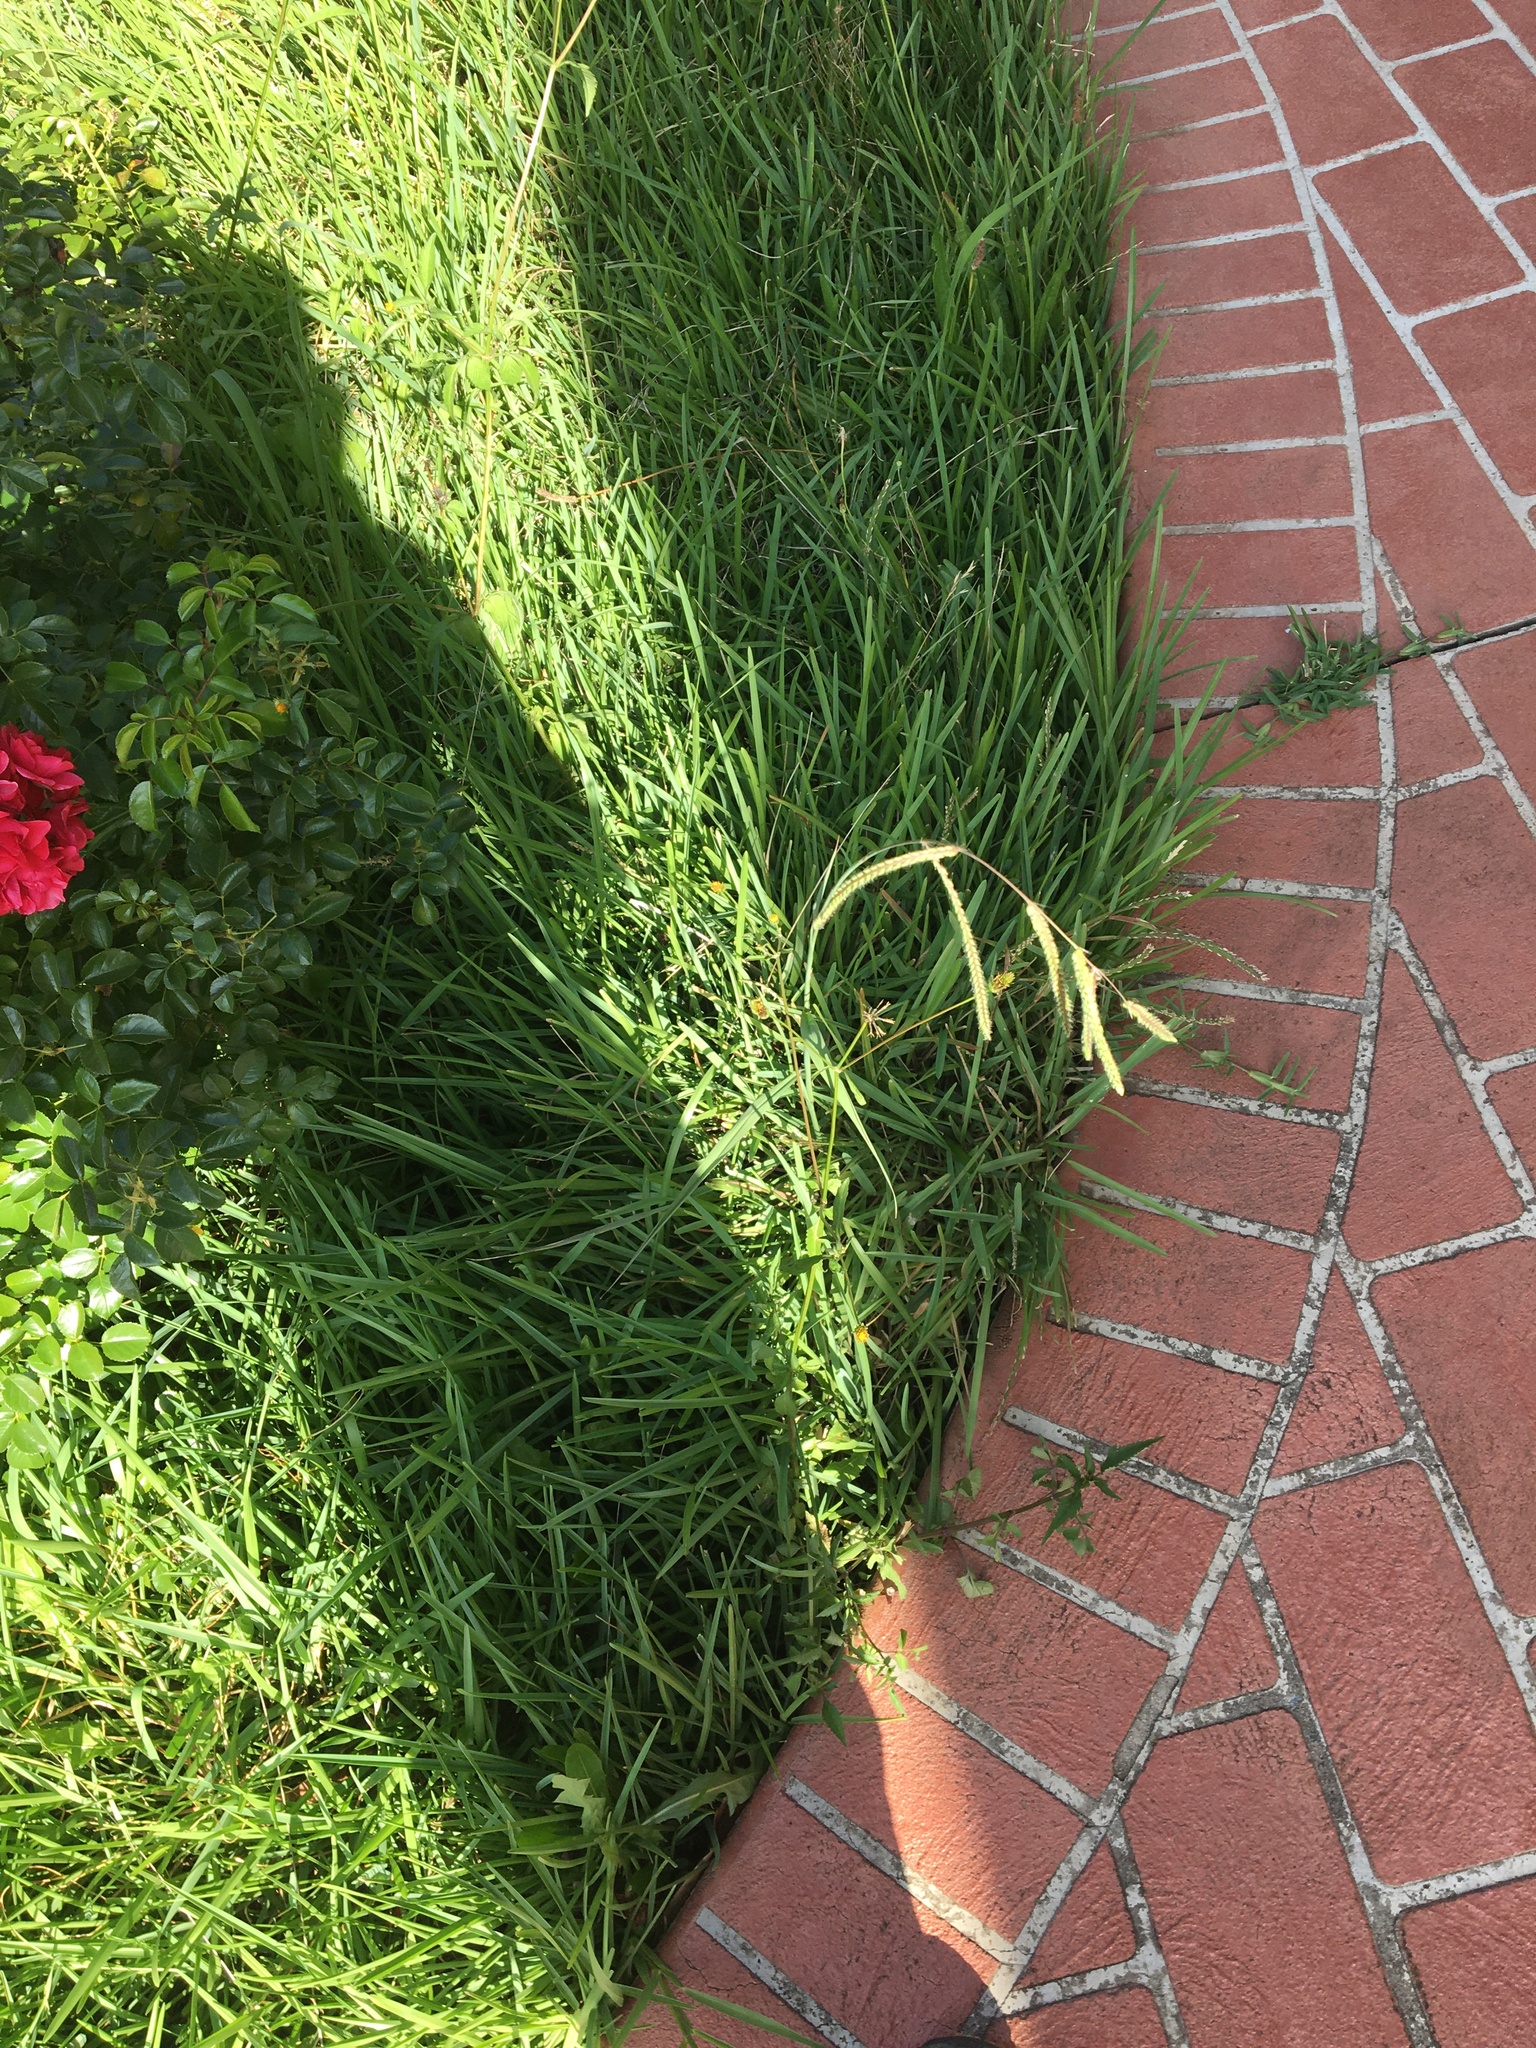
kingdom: Plantae
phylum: Tracheophyta
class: Liliopsida
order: Poales
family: Poaceae
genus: Paspalum
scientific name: Paspalum dilatatum
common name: Dallisgrass
